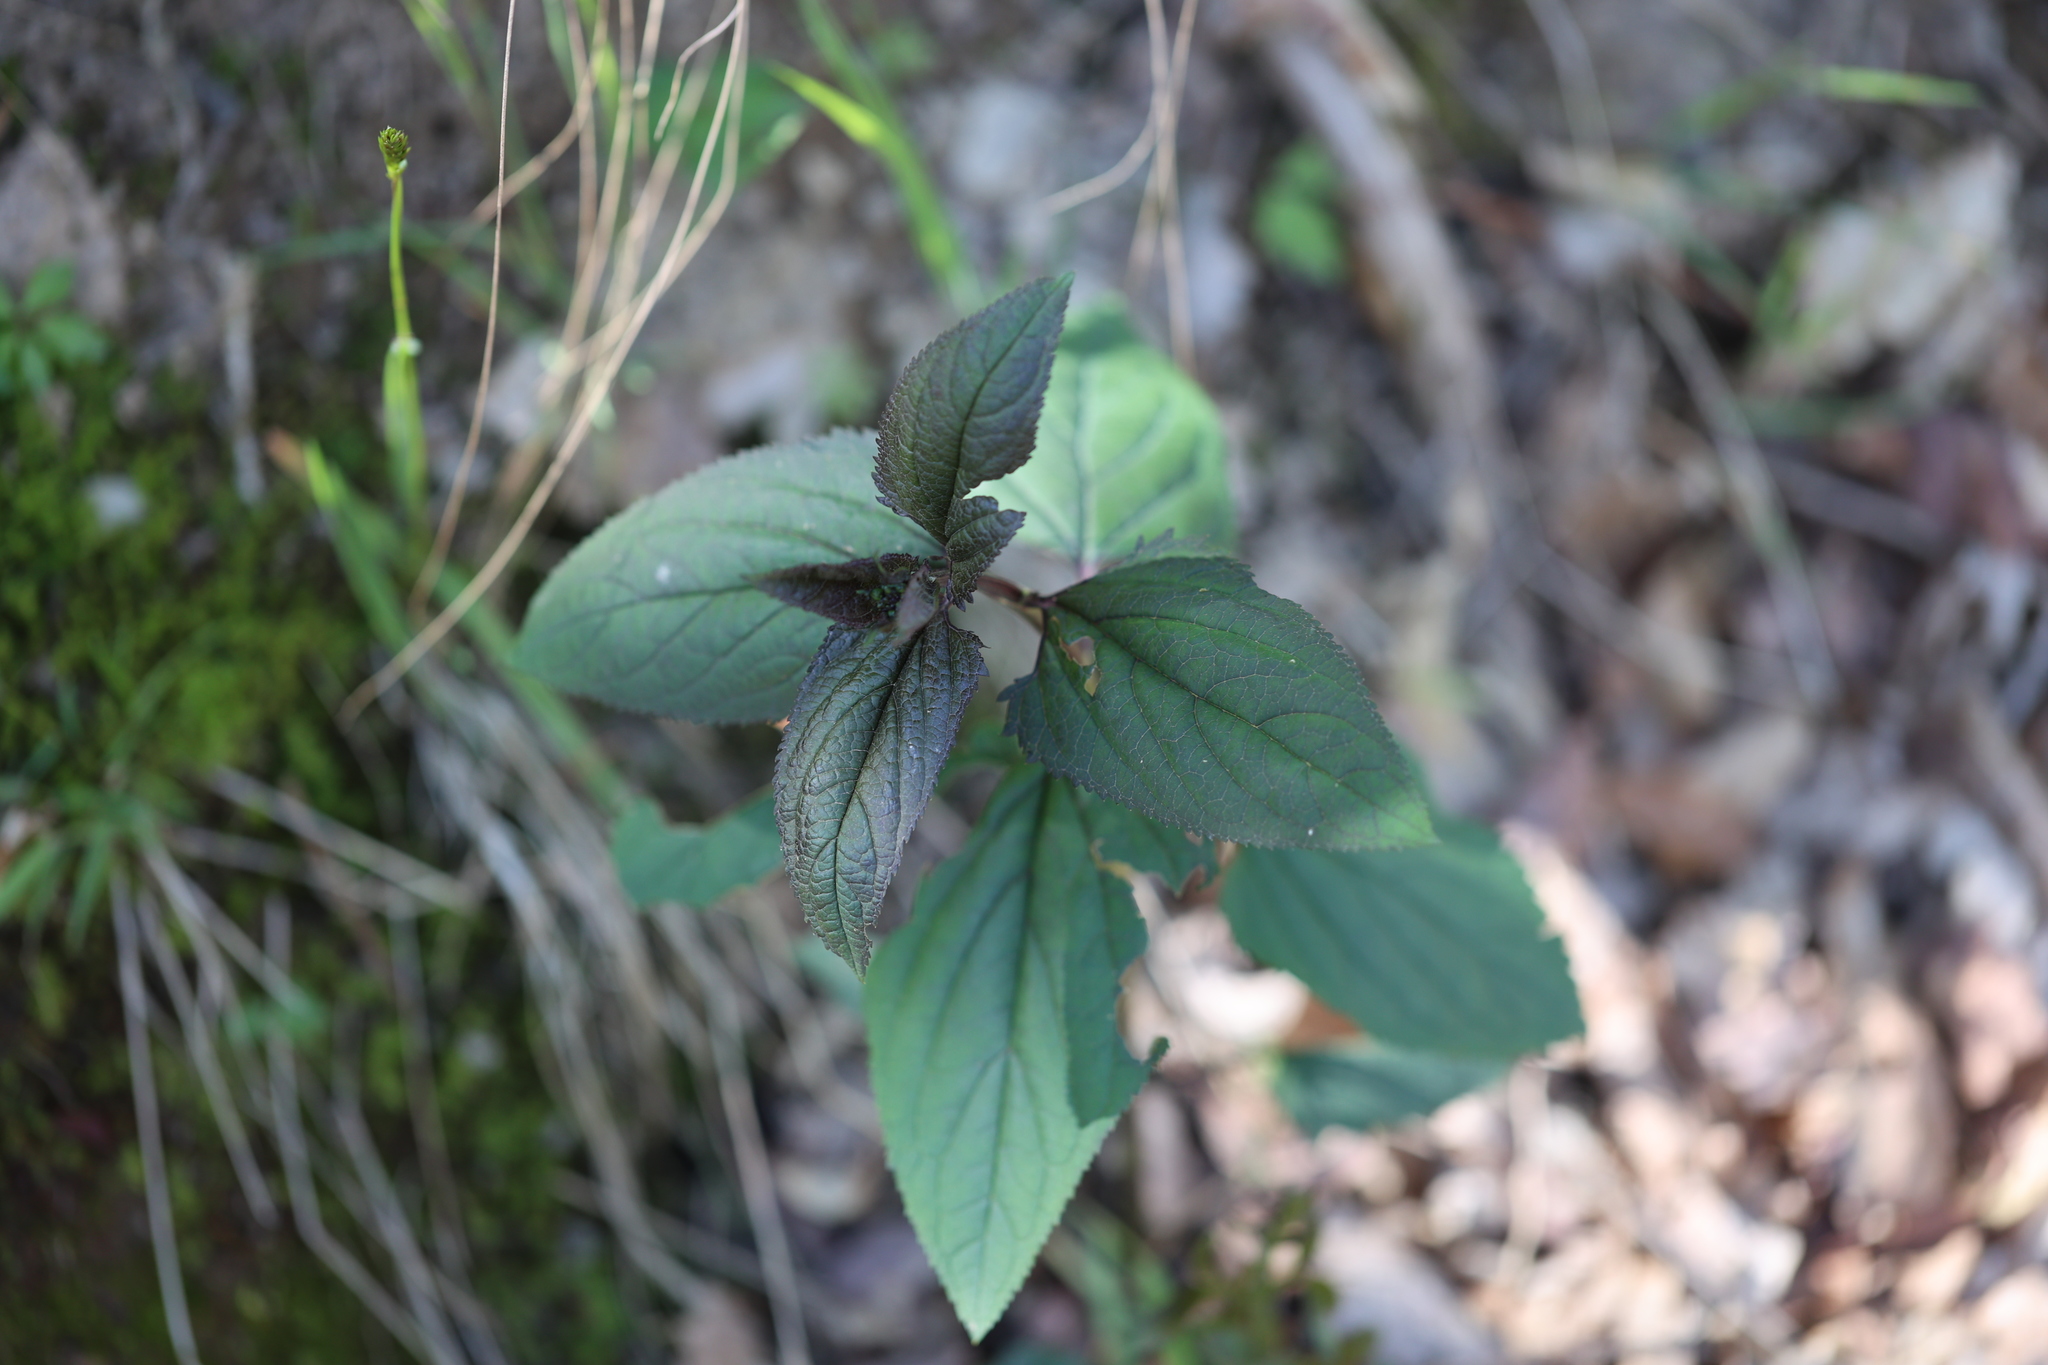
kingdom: Plantae
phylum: Tracheophyta
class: Magnoliopsida
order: Lamiales
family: Scrophulariaceae
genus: Scrophularia
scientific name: Scrophularia nodosa
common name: Common figwort
